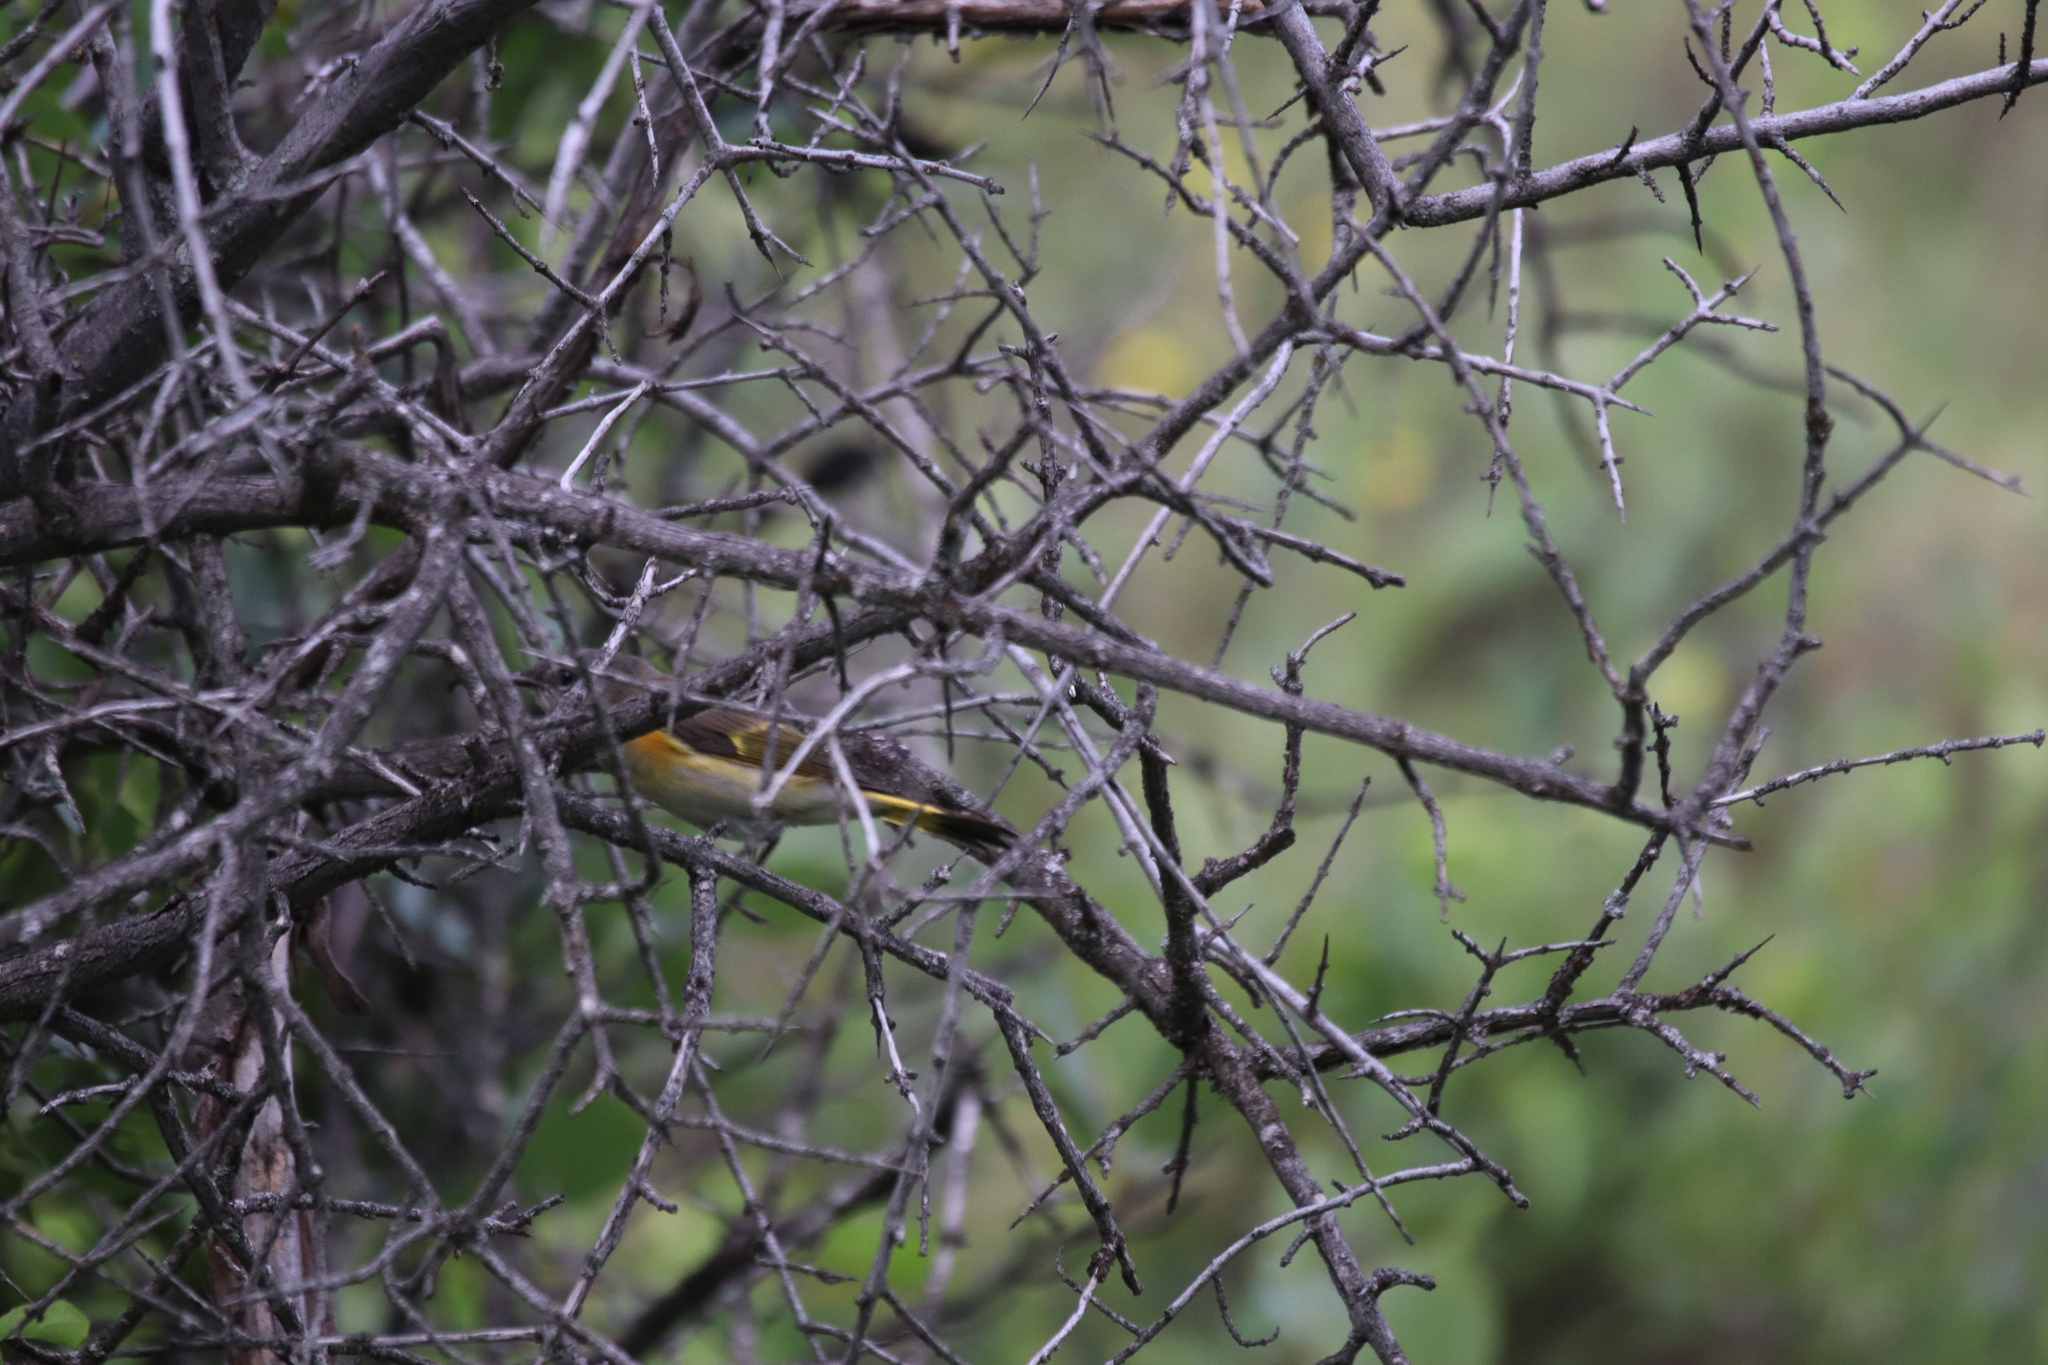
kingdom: Animalia
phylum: Chordata
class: Aves
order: Passeriformes
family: Parulidae
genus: Setophaga
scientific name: Setophaga ruticilla
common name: American redstart
